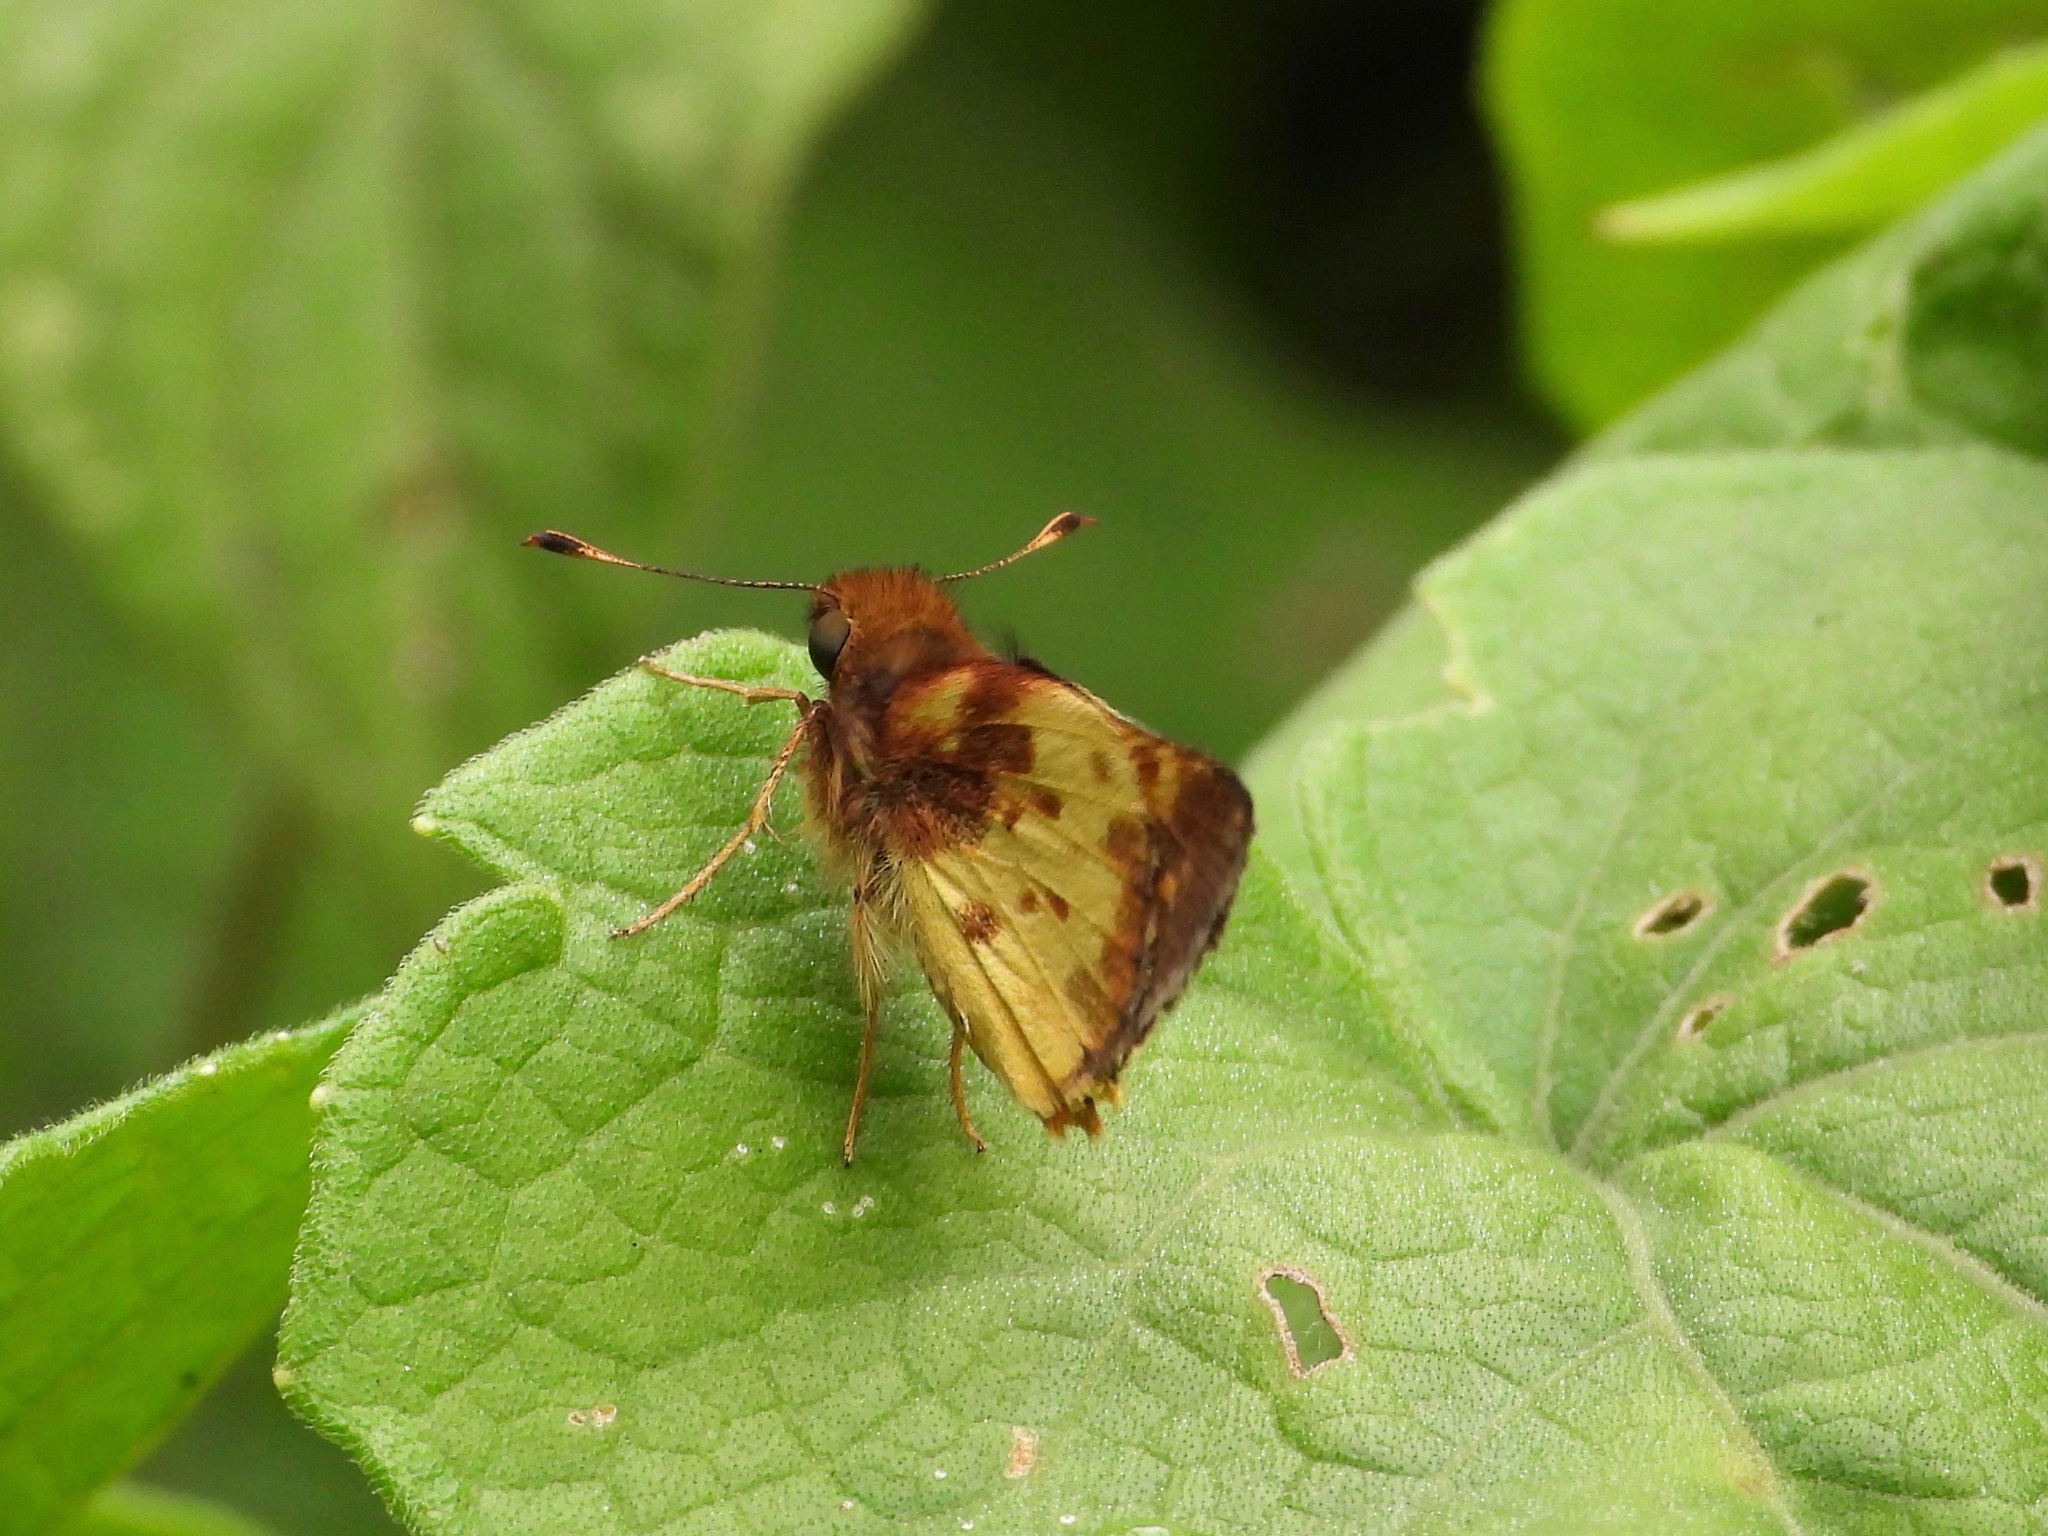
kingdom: Animalia
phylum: Arthropoda
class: Insecta
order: Lepidoptera
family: Hesperiidae
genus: Lon
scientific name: Lon zabulon
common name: Zabulon skipper
